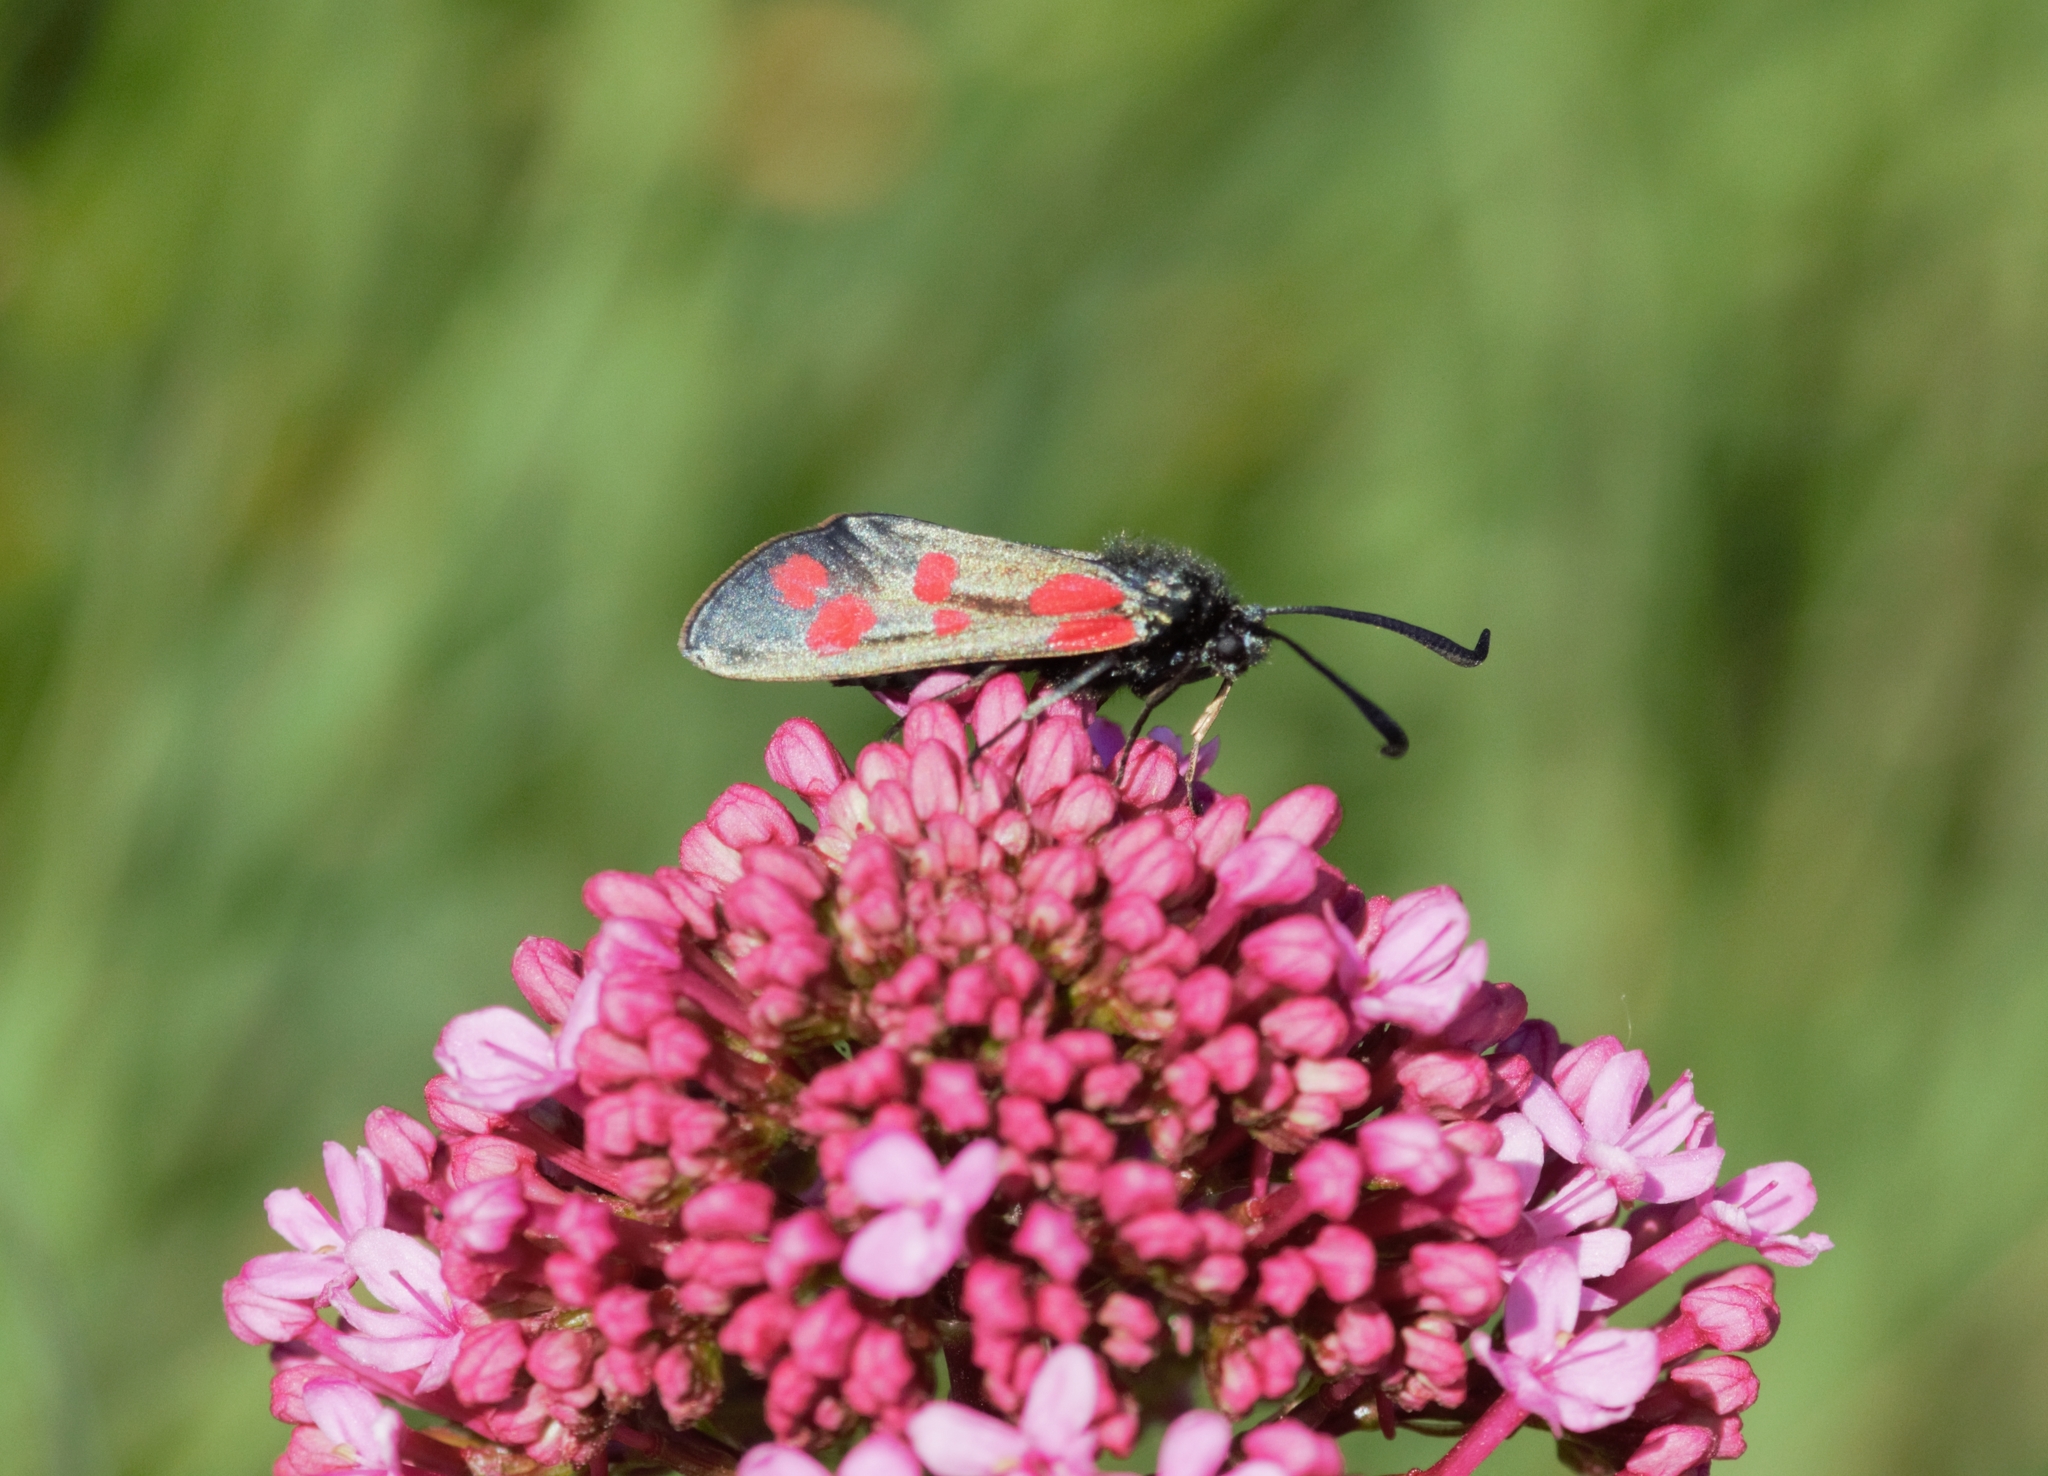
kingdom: Animalia
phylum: Arthropoda
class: Insecta
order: Lepidoptera
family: Zygaenidae
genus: Zygaena
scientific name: Zygaena filipendulae
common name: Six-spot burnet
